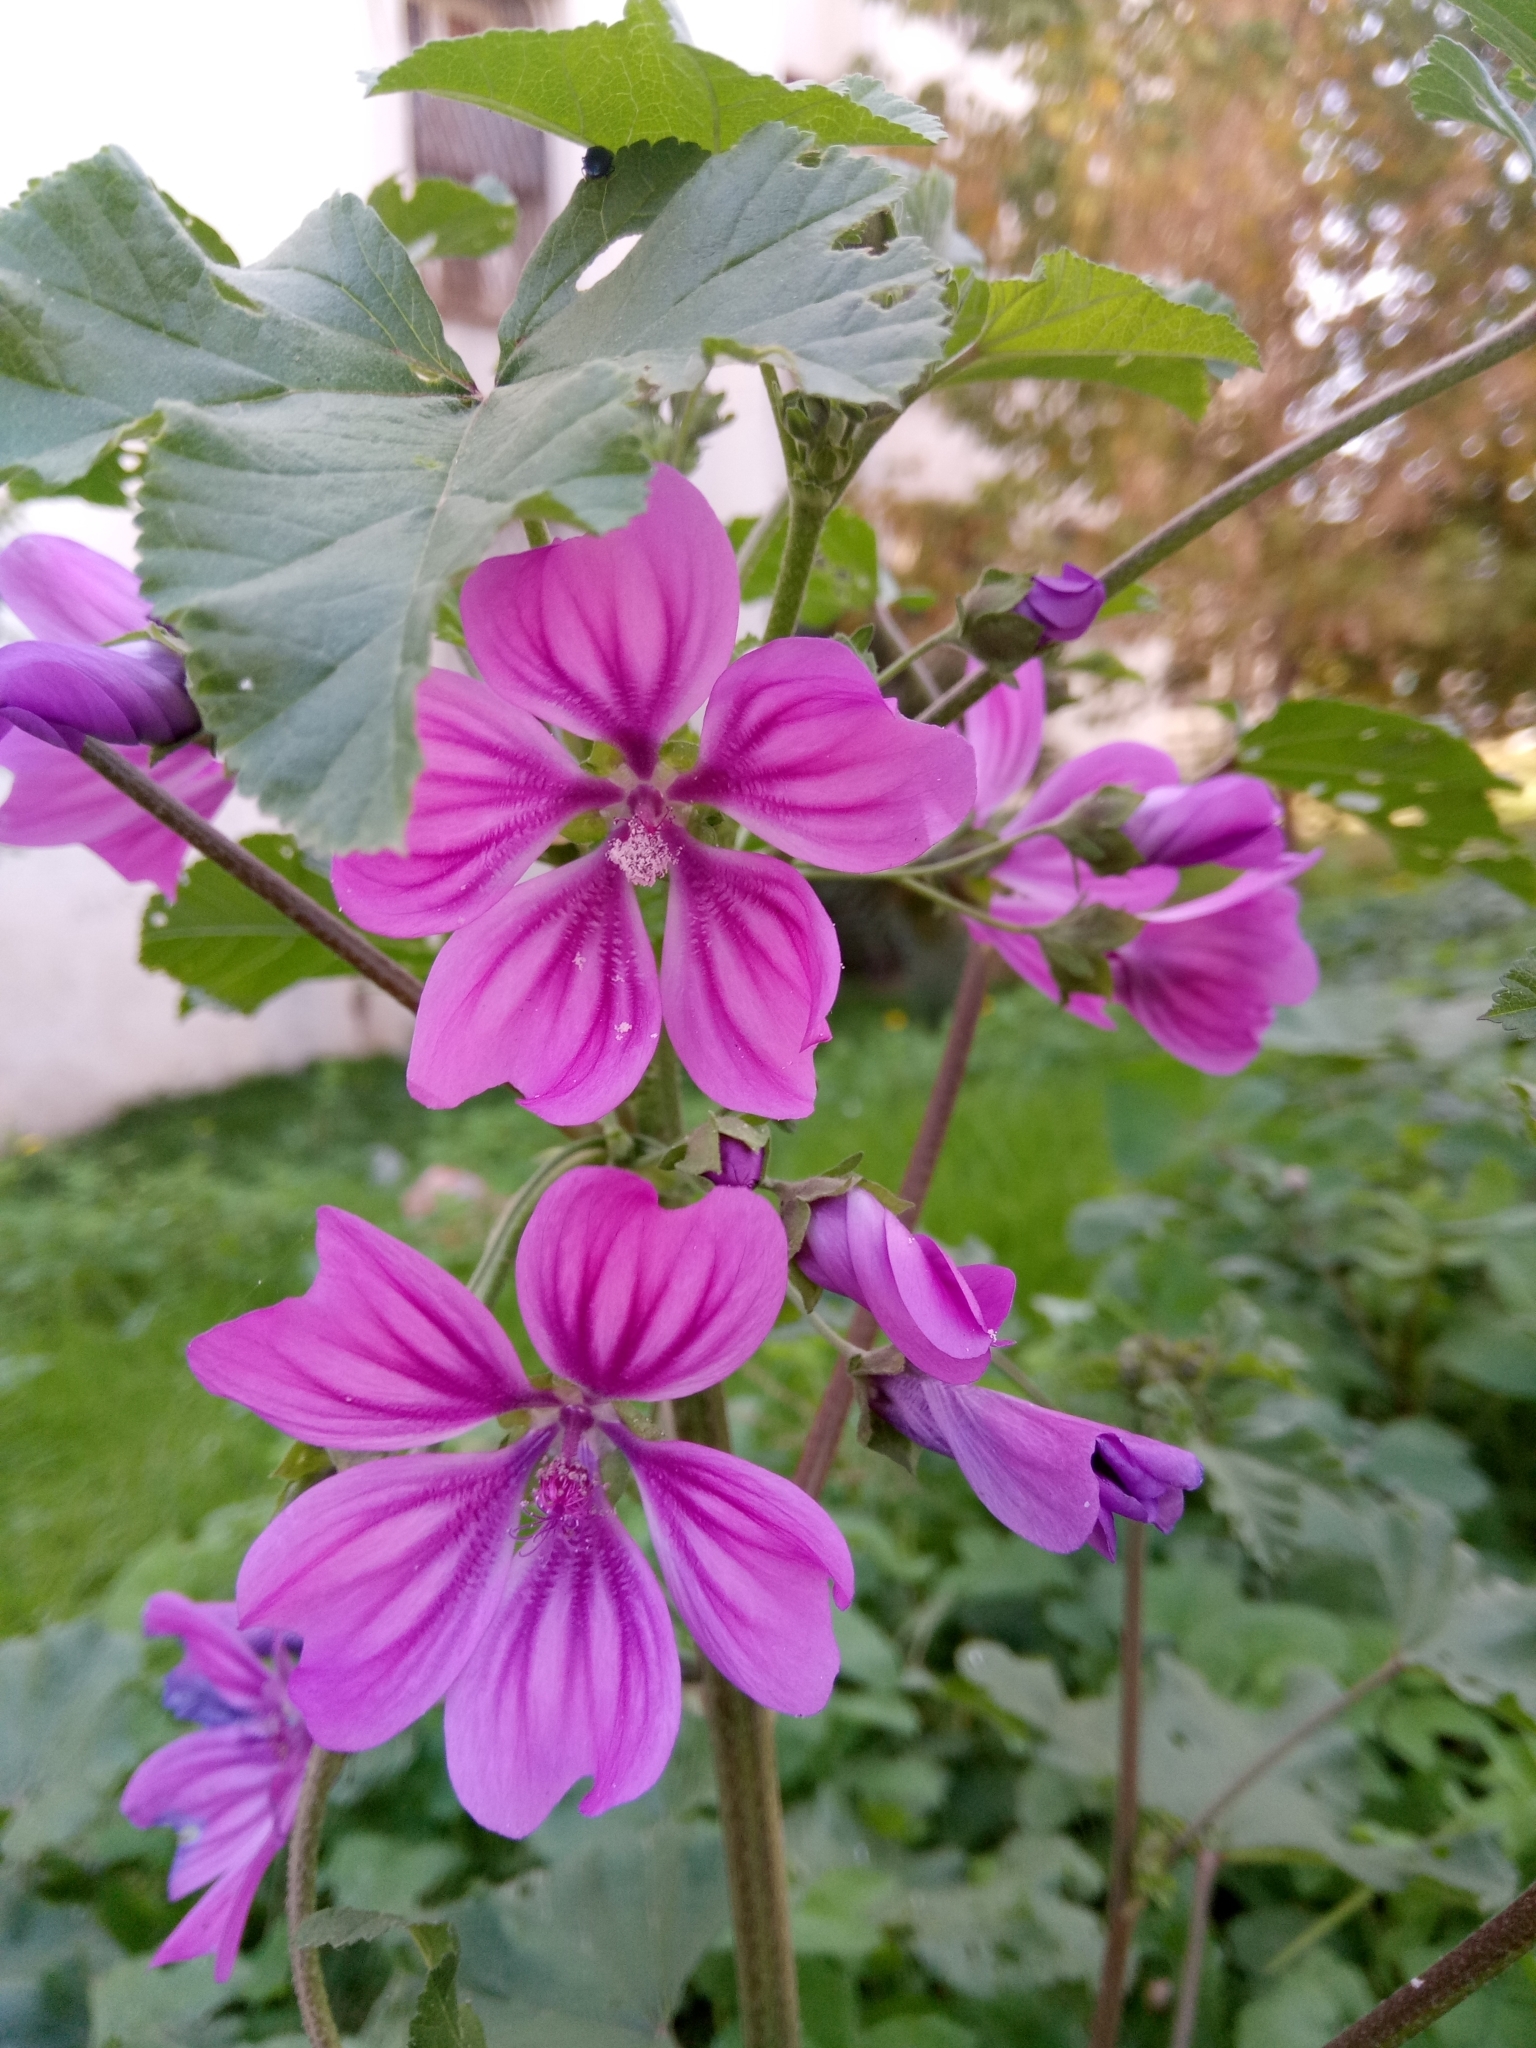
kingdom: Plantae
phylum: Tracheophyta
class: Magnoliopsida
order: Malvales
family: Malvaceae
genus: Malva
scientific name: Malva sylvestris
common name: Common mallow
